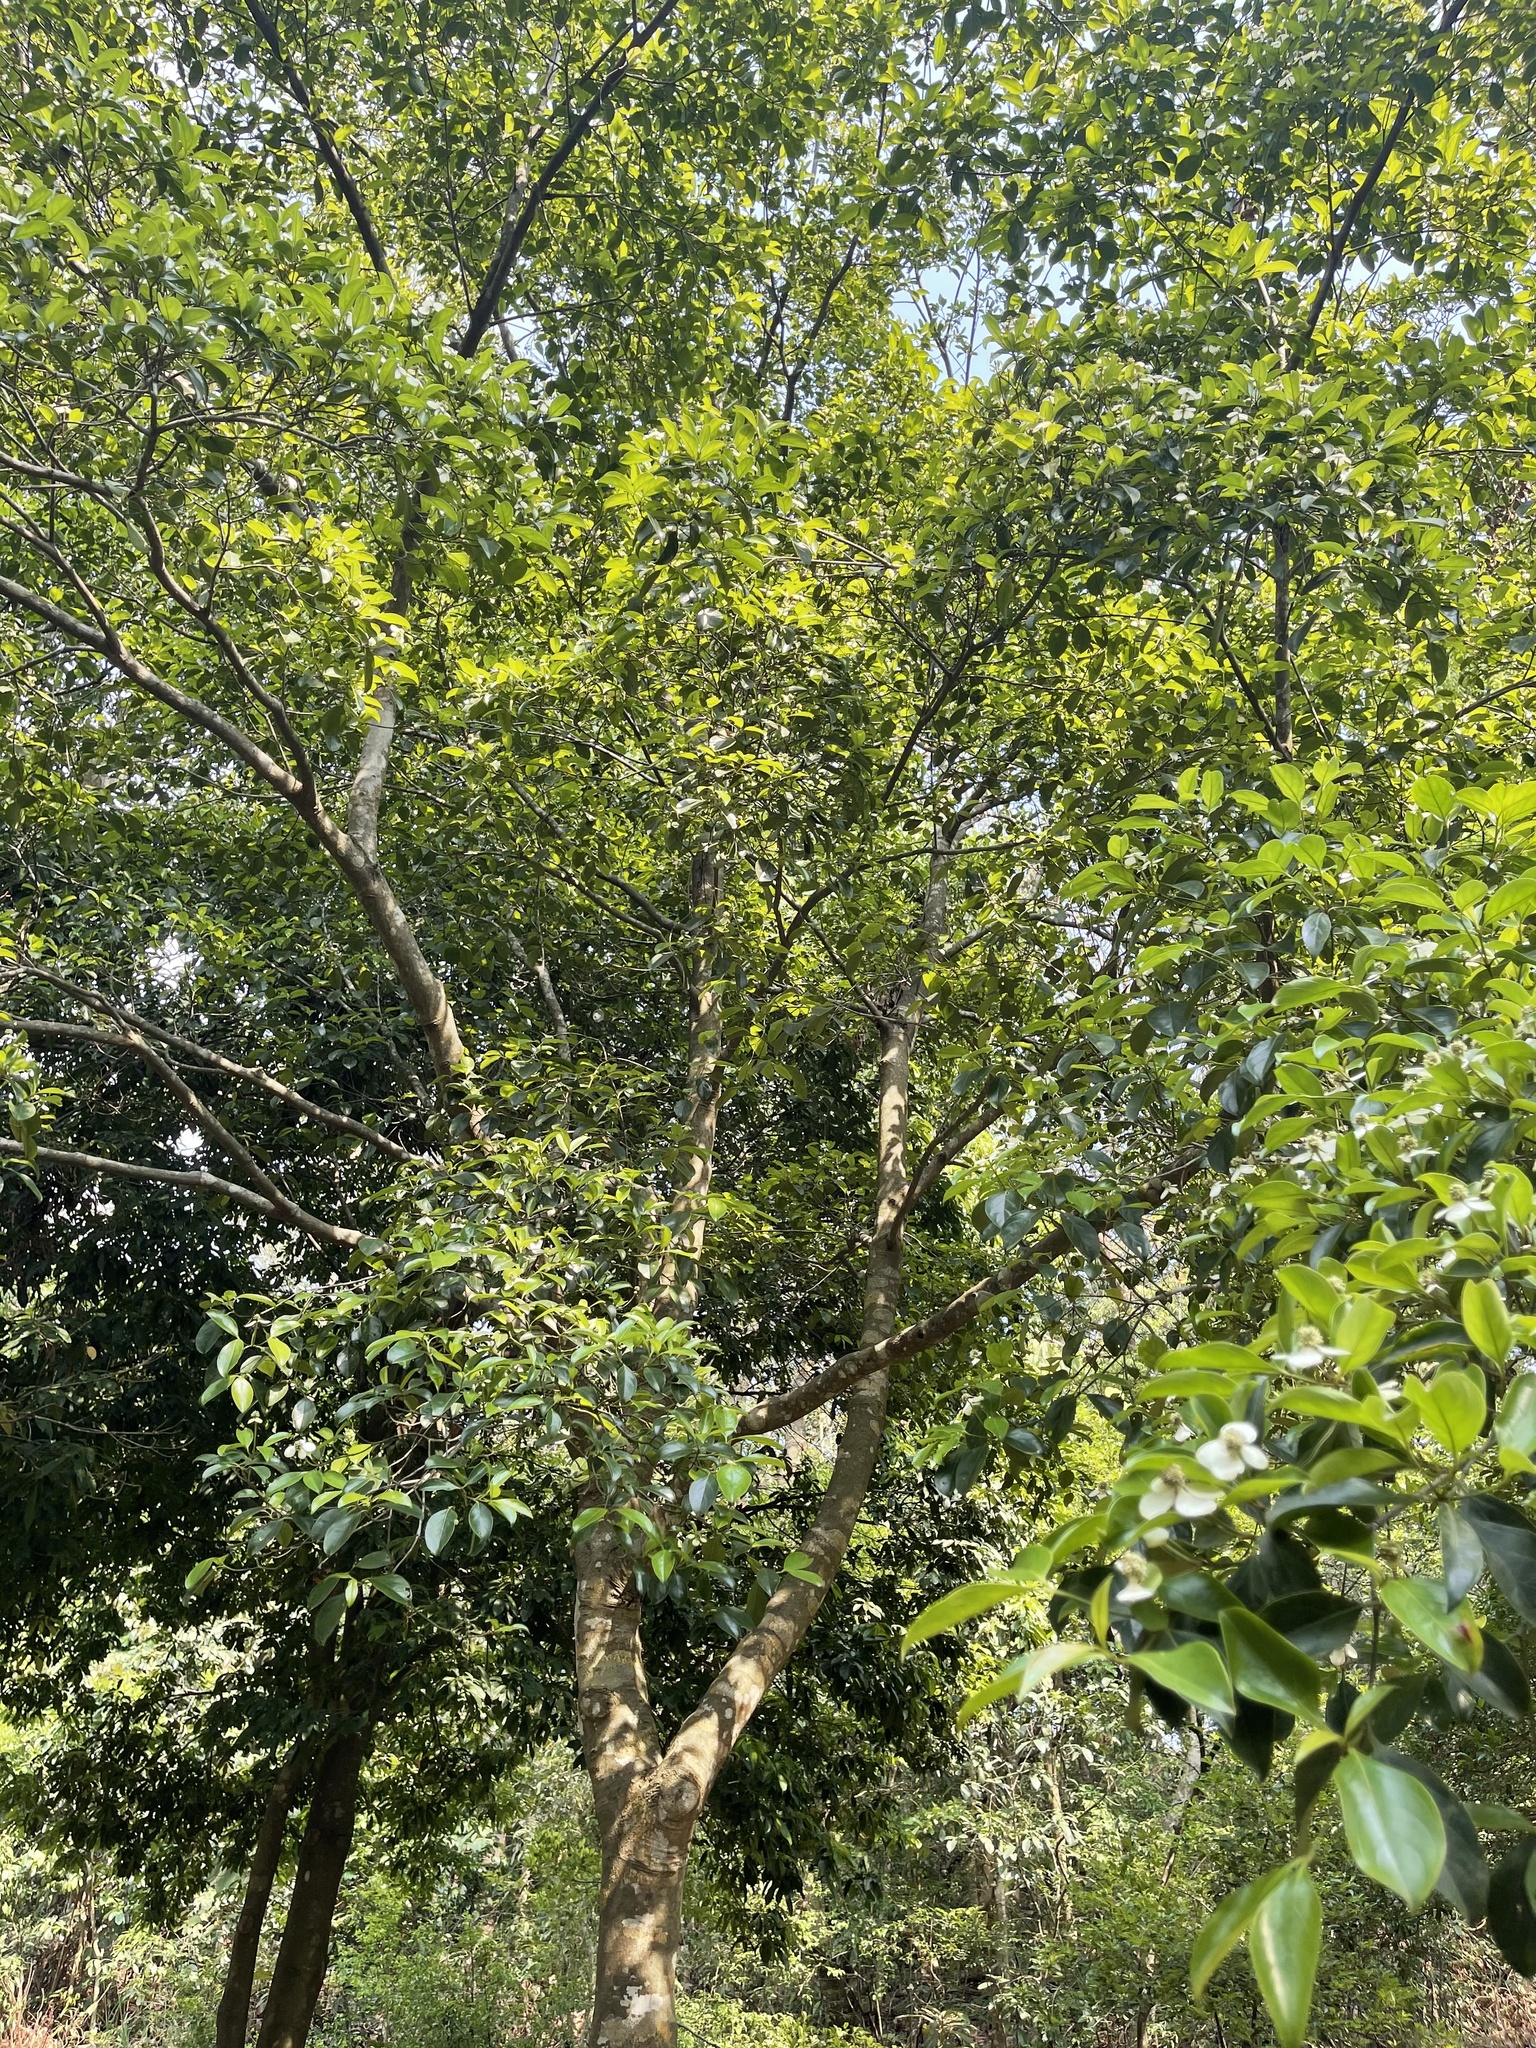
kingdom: Plantae
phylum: Tracheophyta
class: Magnoliopsida
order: Cornales
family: Cornaceae
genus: Cornus
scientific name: Cornus hongkongensis
